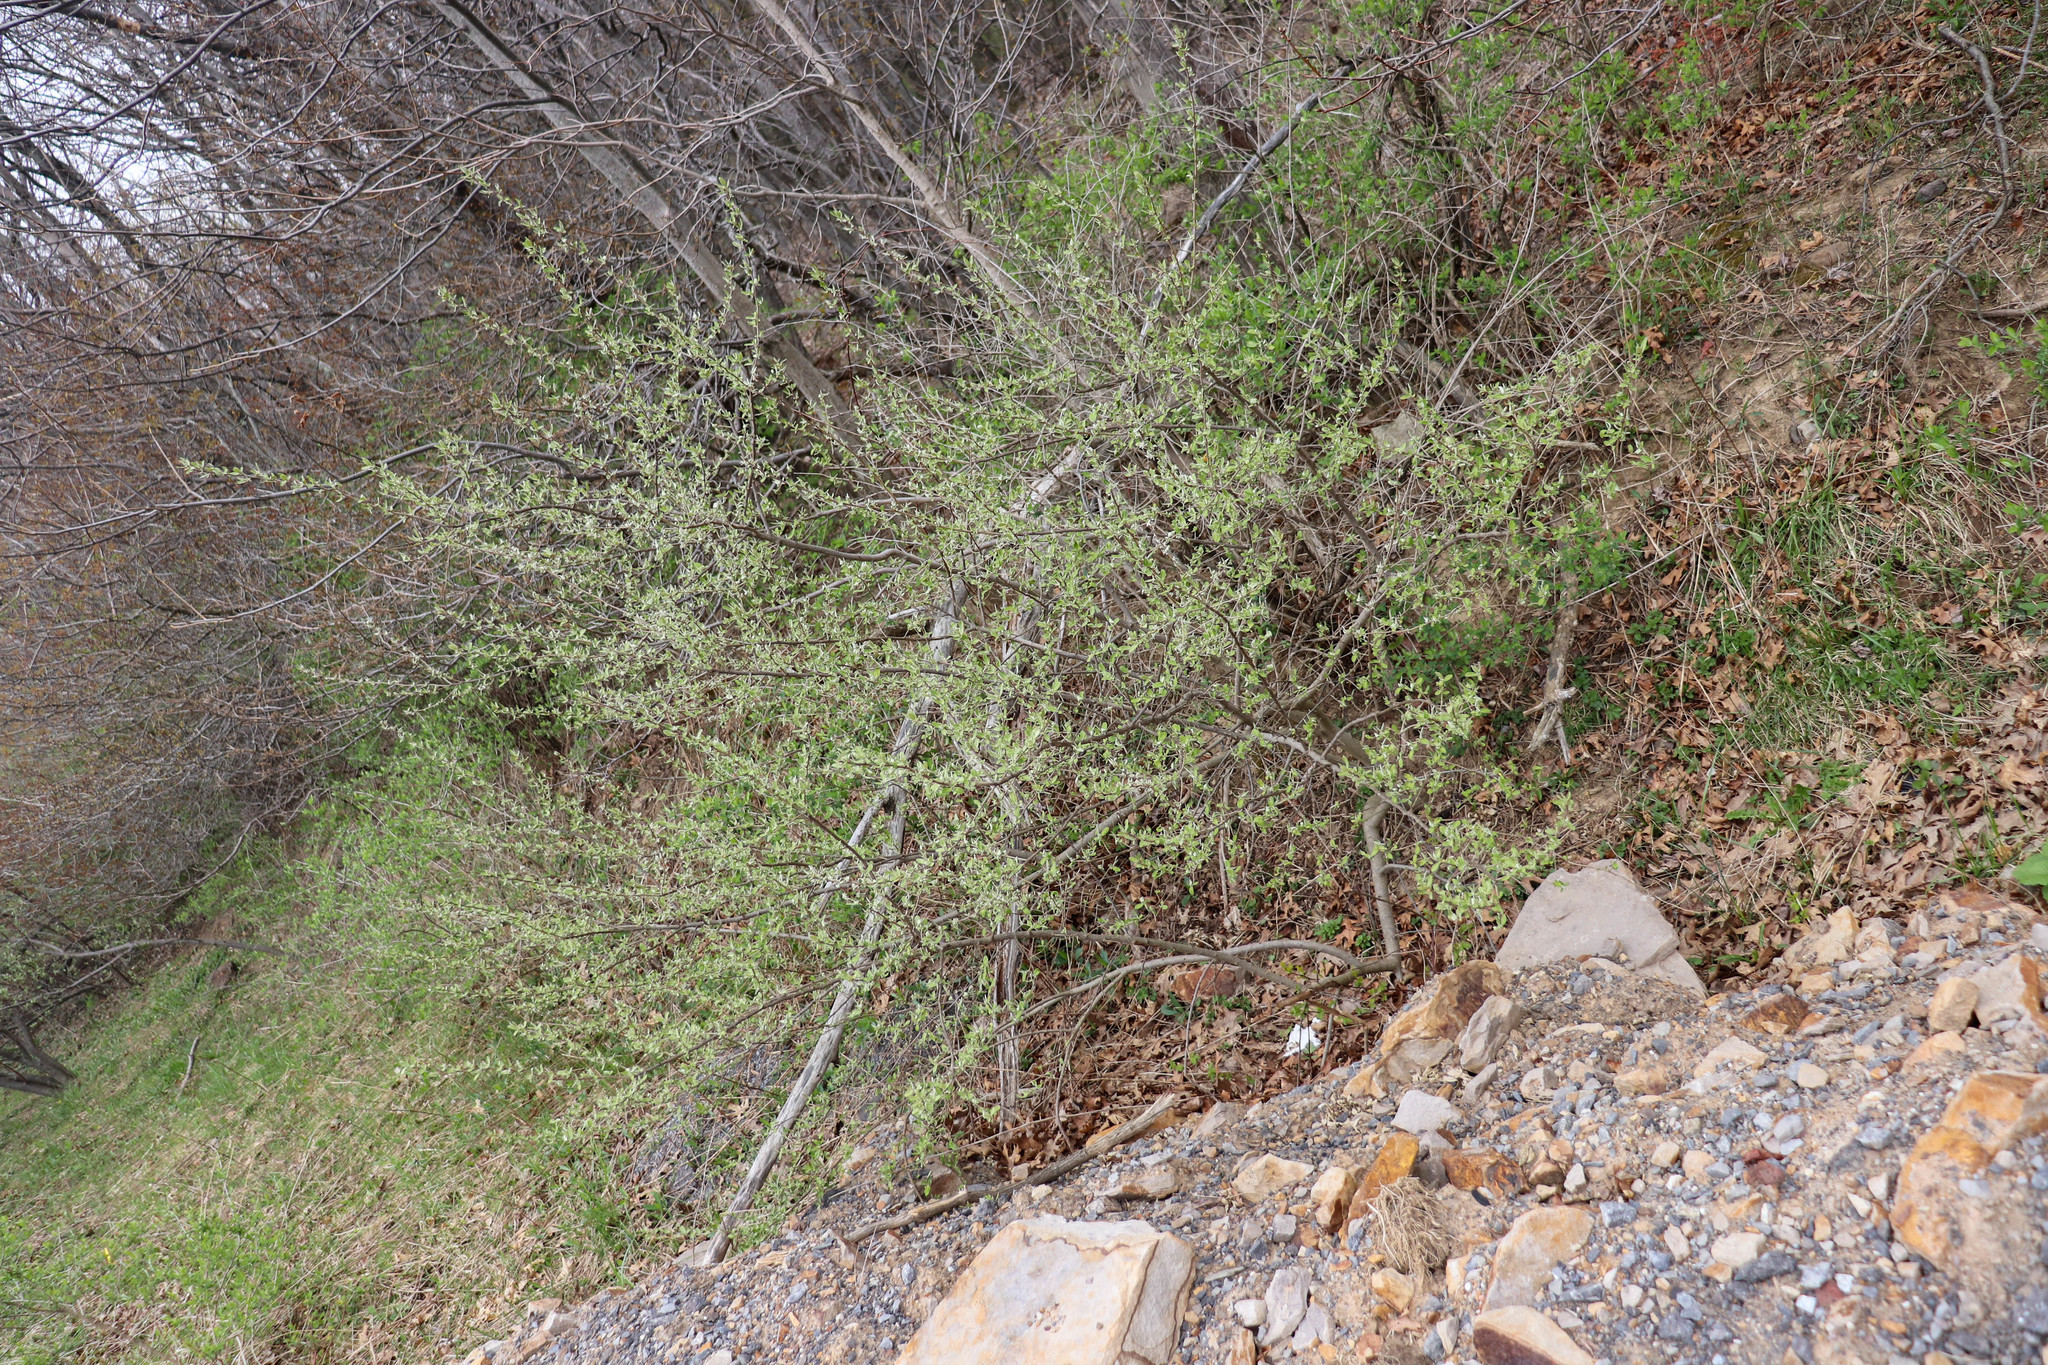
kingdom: Plantae
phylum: Tracheophyta
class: Magnoliopsida
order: Rosales
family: Elaeagnaceae
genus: Elaeagnus
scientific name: Elaeagnus umbellata
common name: Autumn olive
